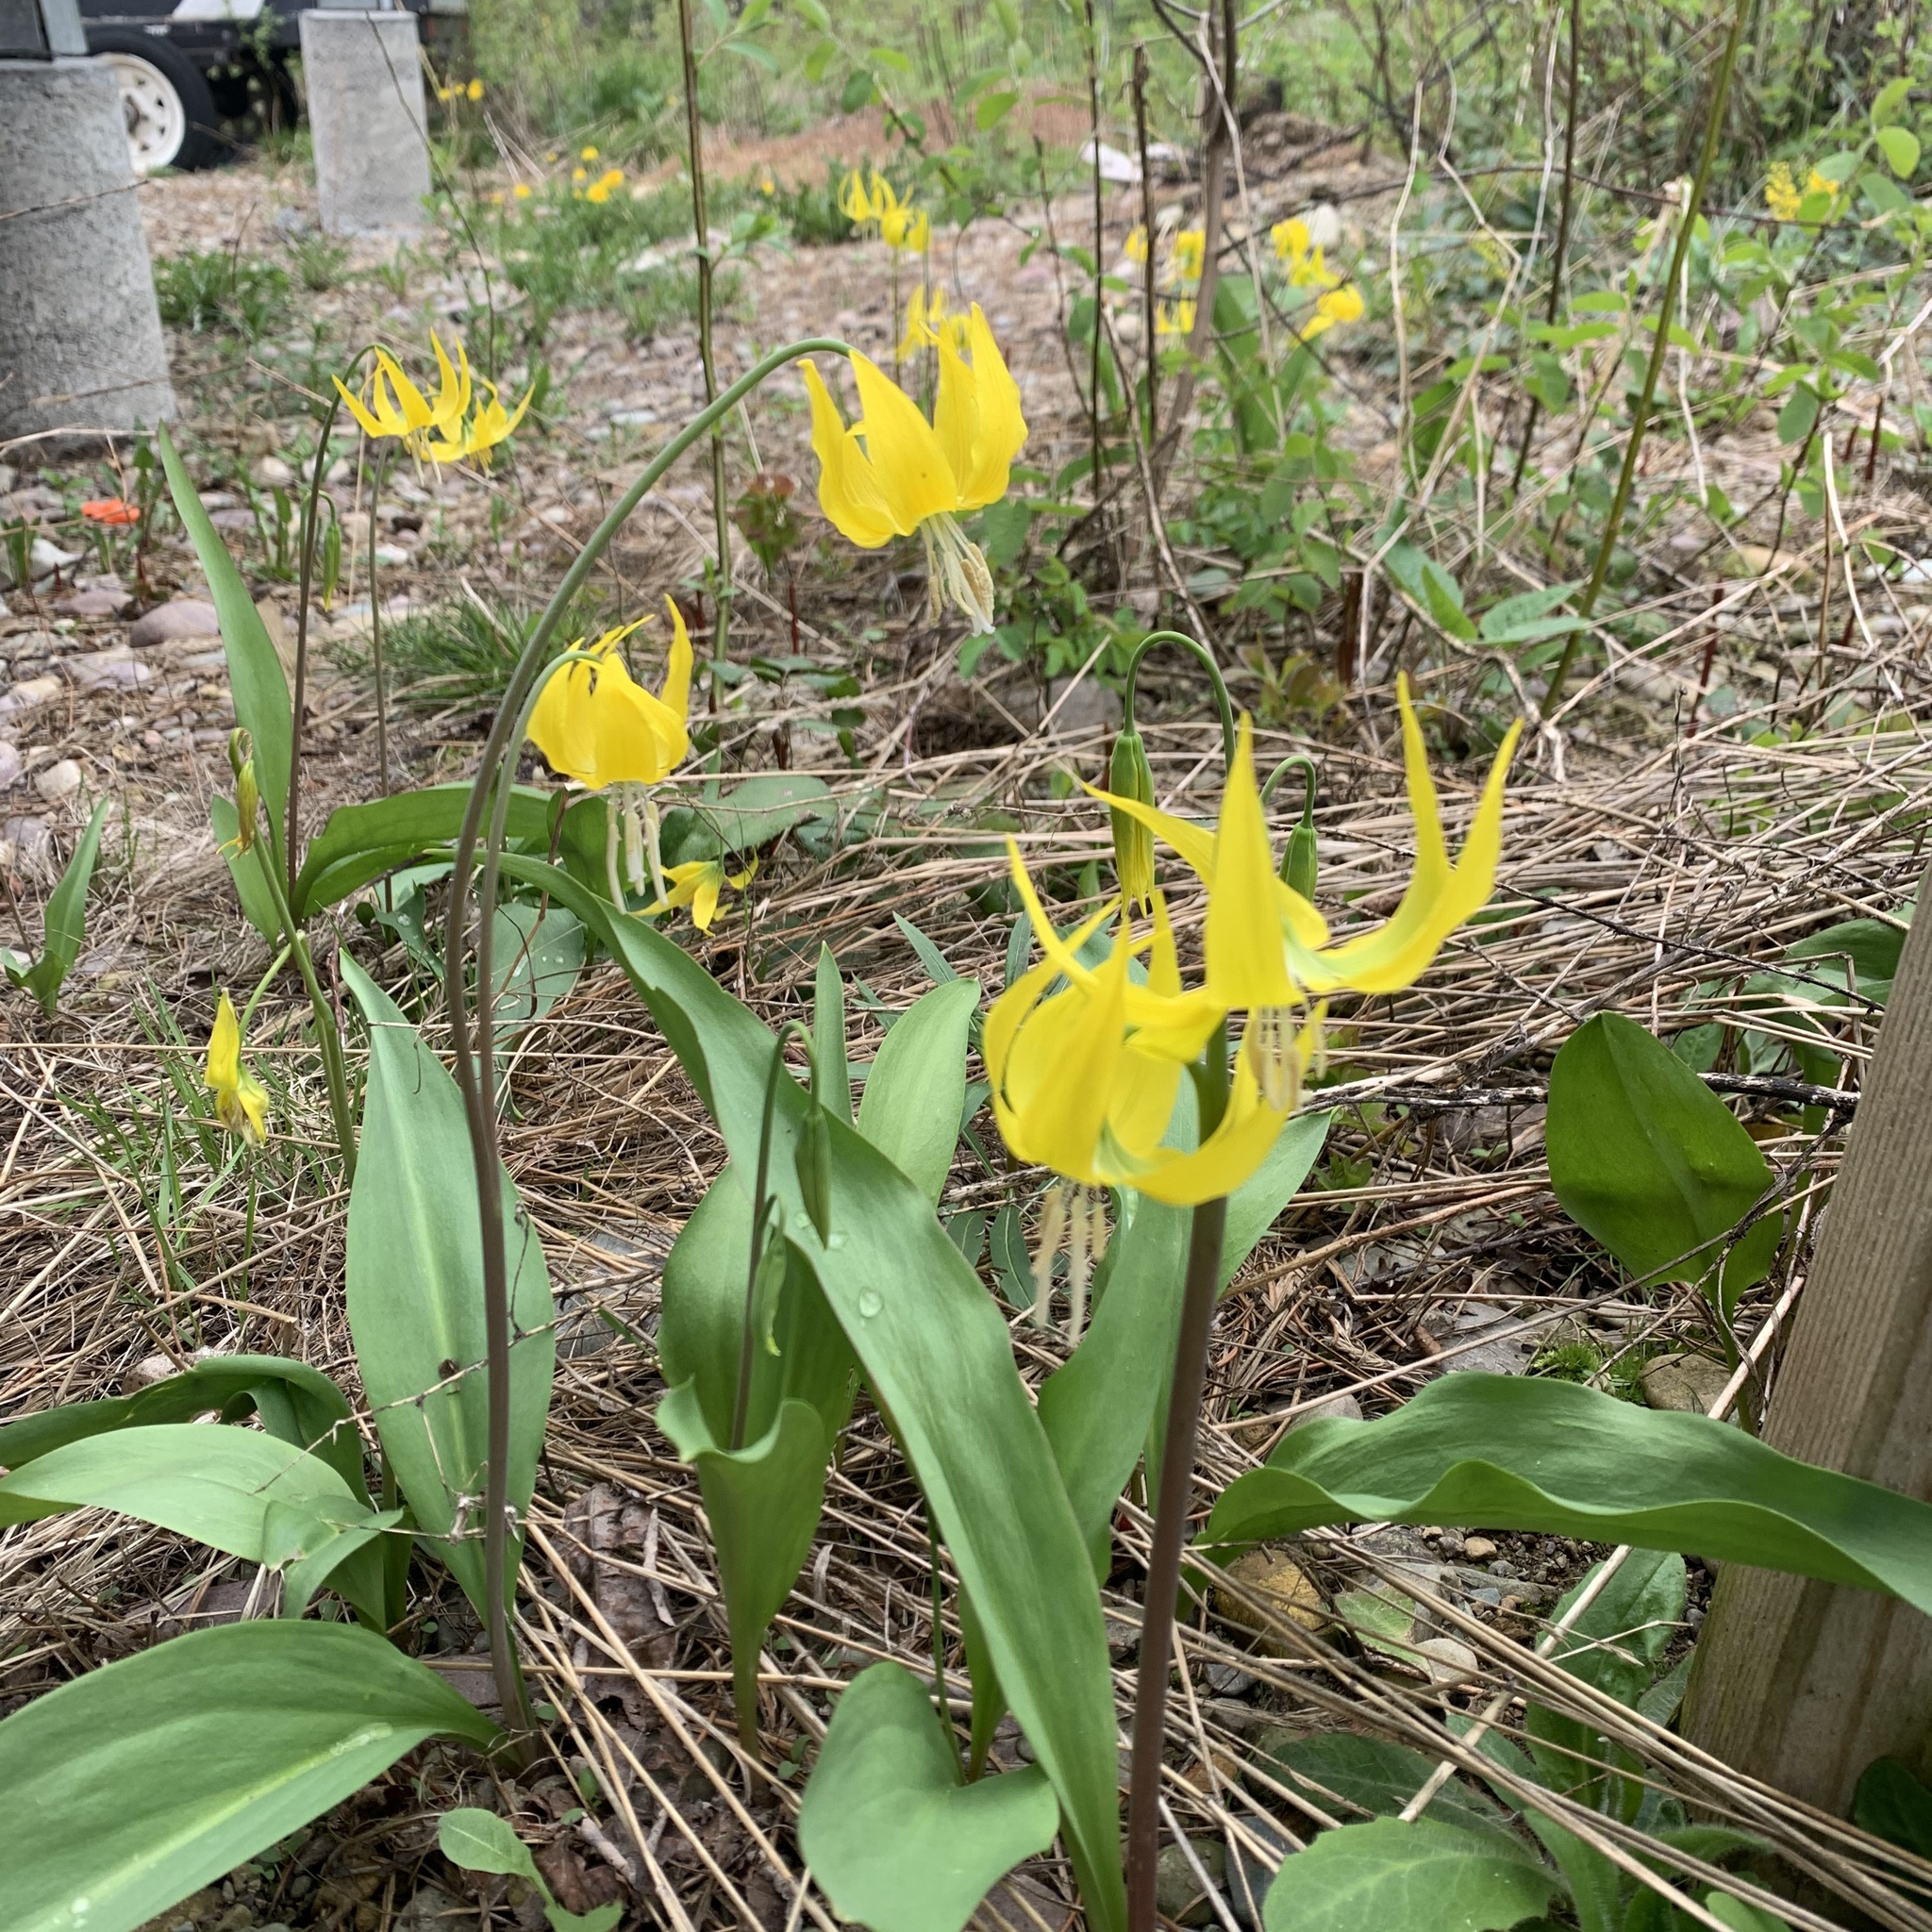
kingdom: Plantae
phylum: Tracheophyta
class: Liliopsida
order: Liliales
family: Liliaceae
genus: Erythronium
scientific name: Erythronium grandiflorum
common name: Avalanche-lily
